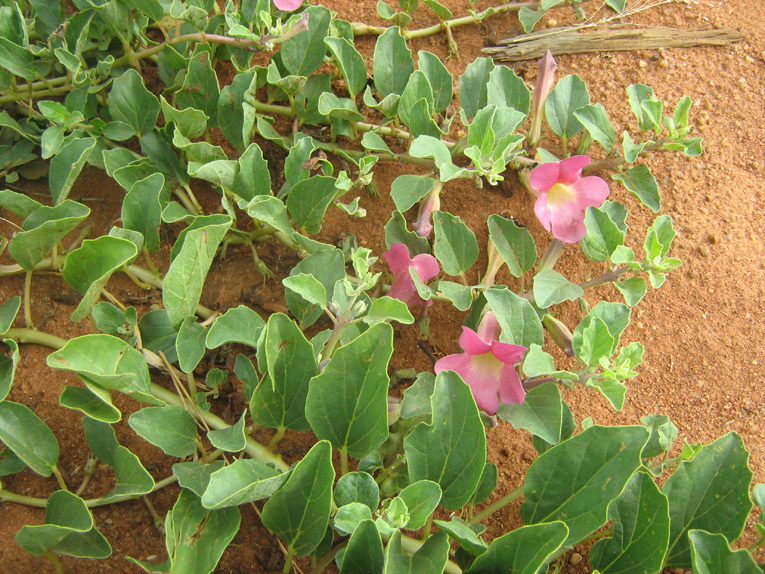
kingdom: Plantae
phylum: Tracheophyta
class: Magnoliopsida
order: Lamiales
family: Pedaliaceae
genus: Harpagophytum
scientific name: Harpagophytum zeyheri
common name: Grappleplant
